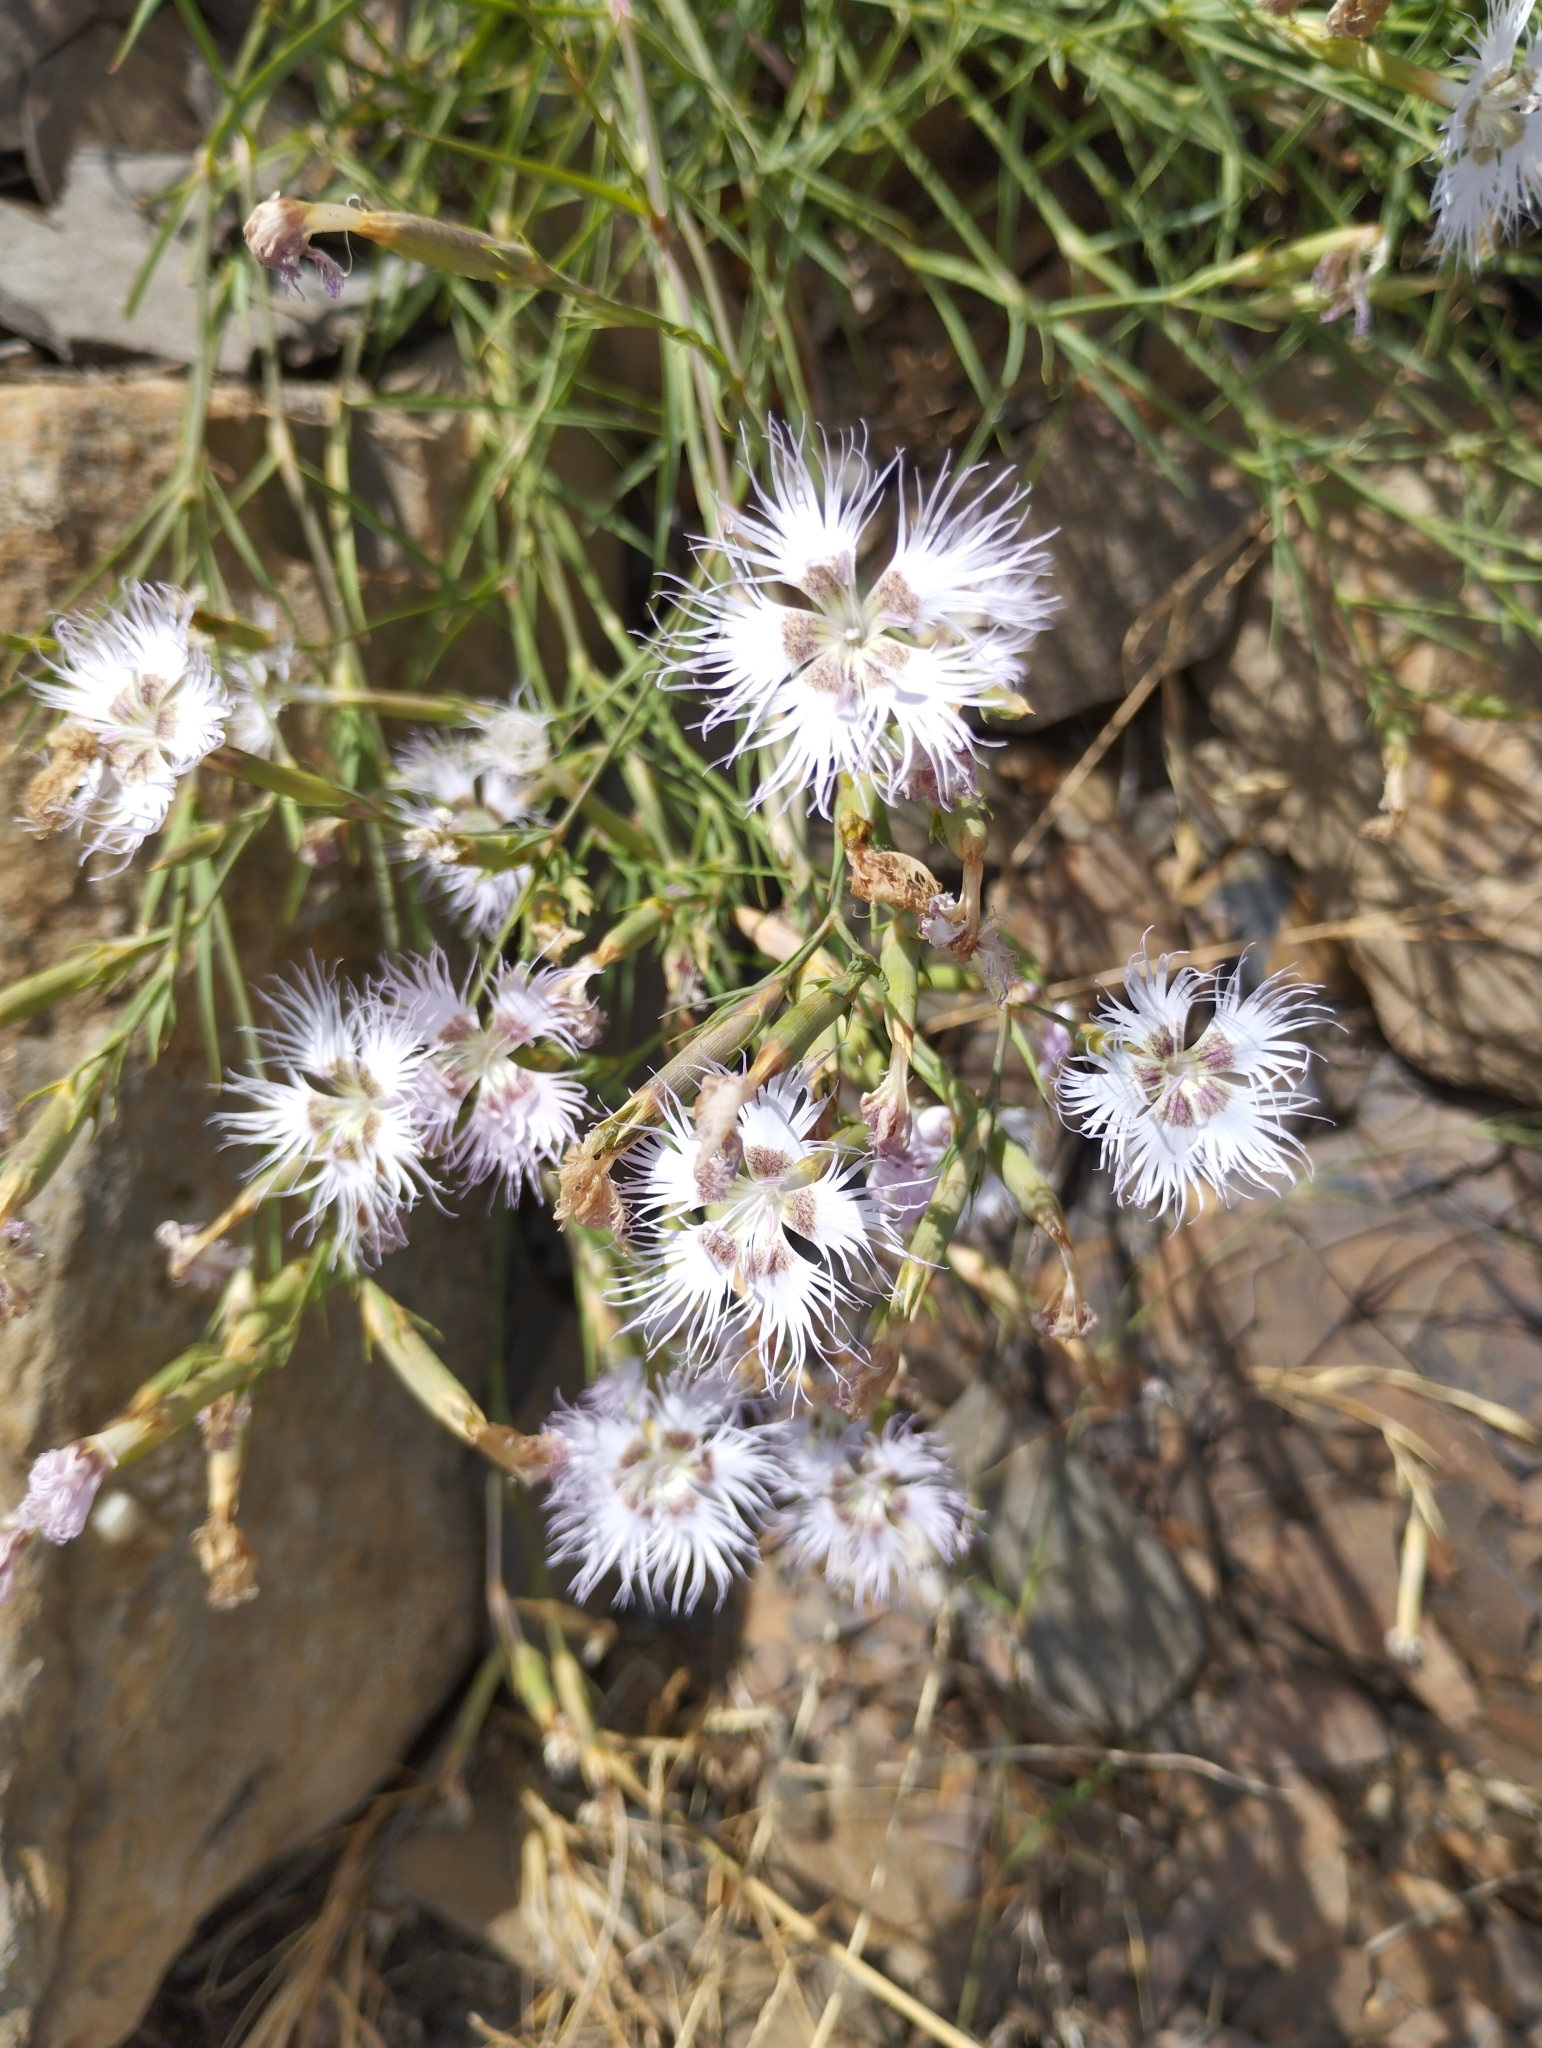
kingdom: Plantae
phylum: Tracheophyta
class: Magnoliopsida
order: Caryophyllales
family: Caryophyllaceae
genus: Dianthus
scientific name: Dianthus hyssopifolius
